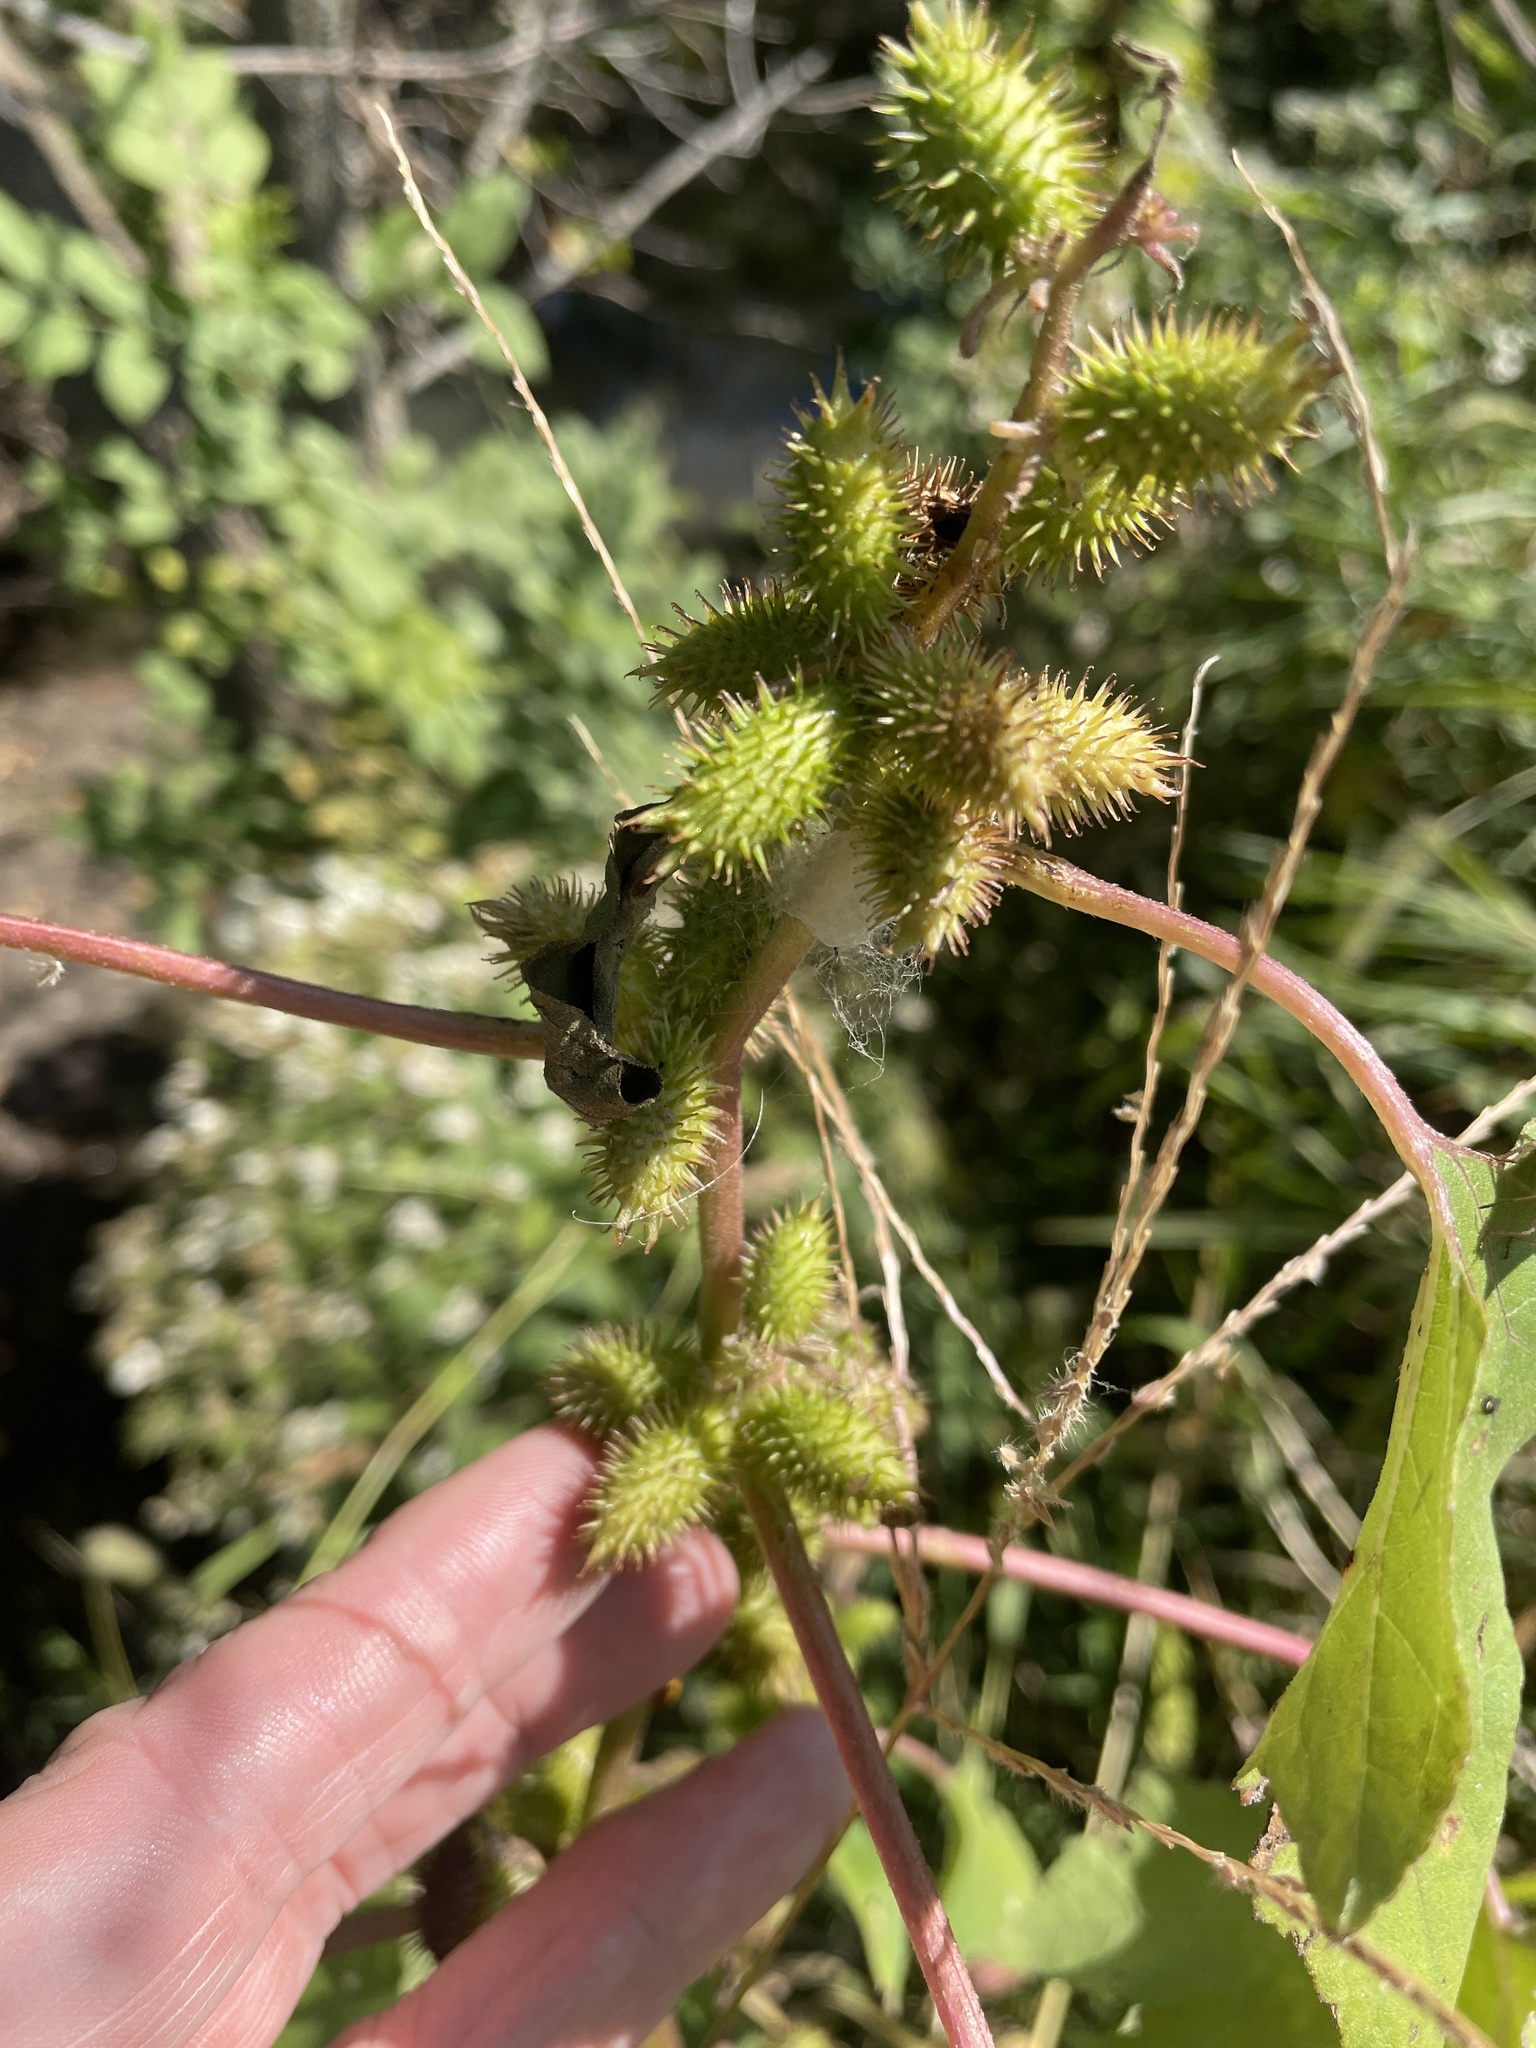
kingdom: Plantae
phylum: Tracheophyta
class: Magnoliopsida
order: Asterales
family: Asteraceae
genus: Xanthium
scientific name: Xanthium strumarium
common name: Rough cocklebur
